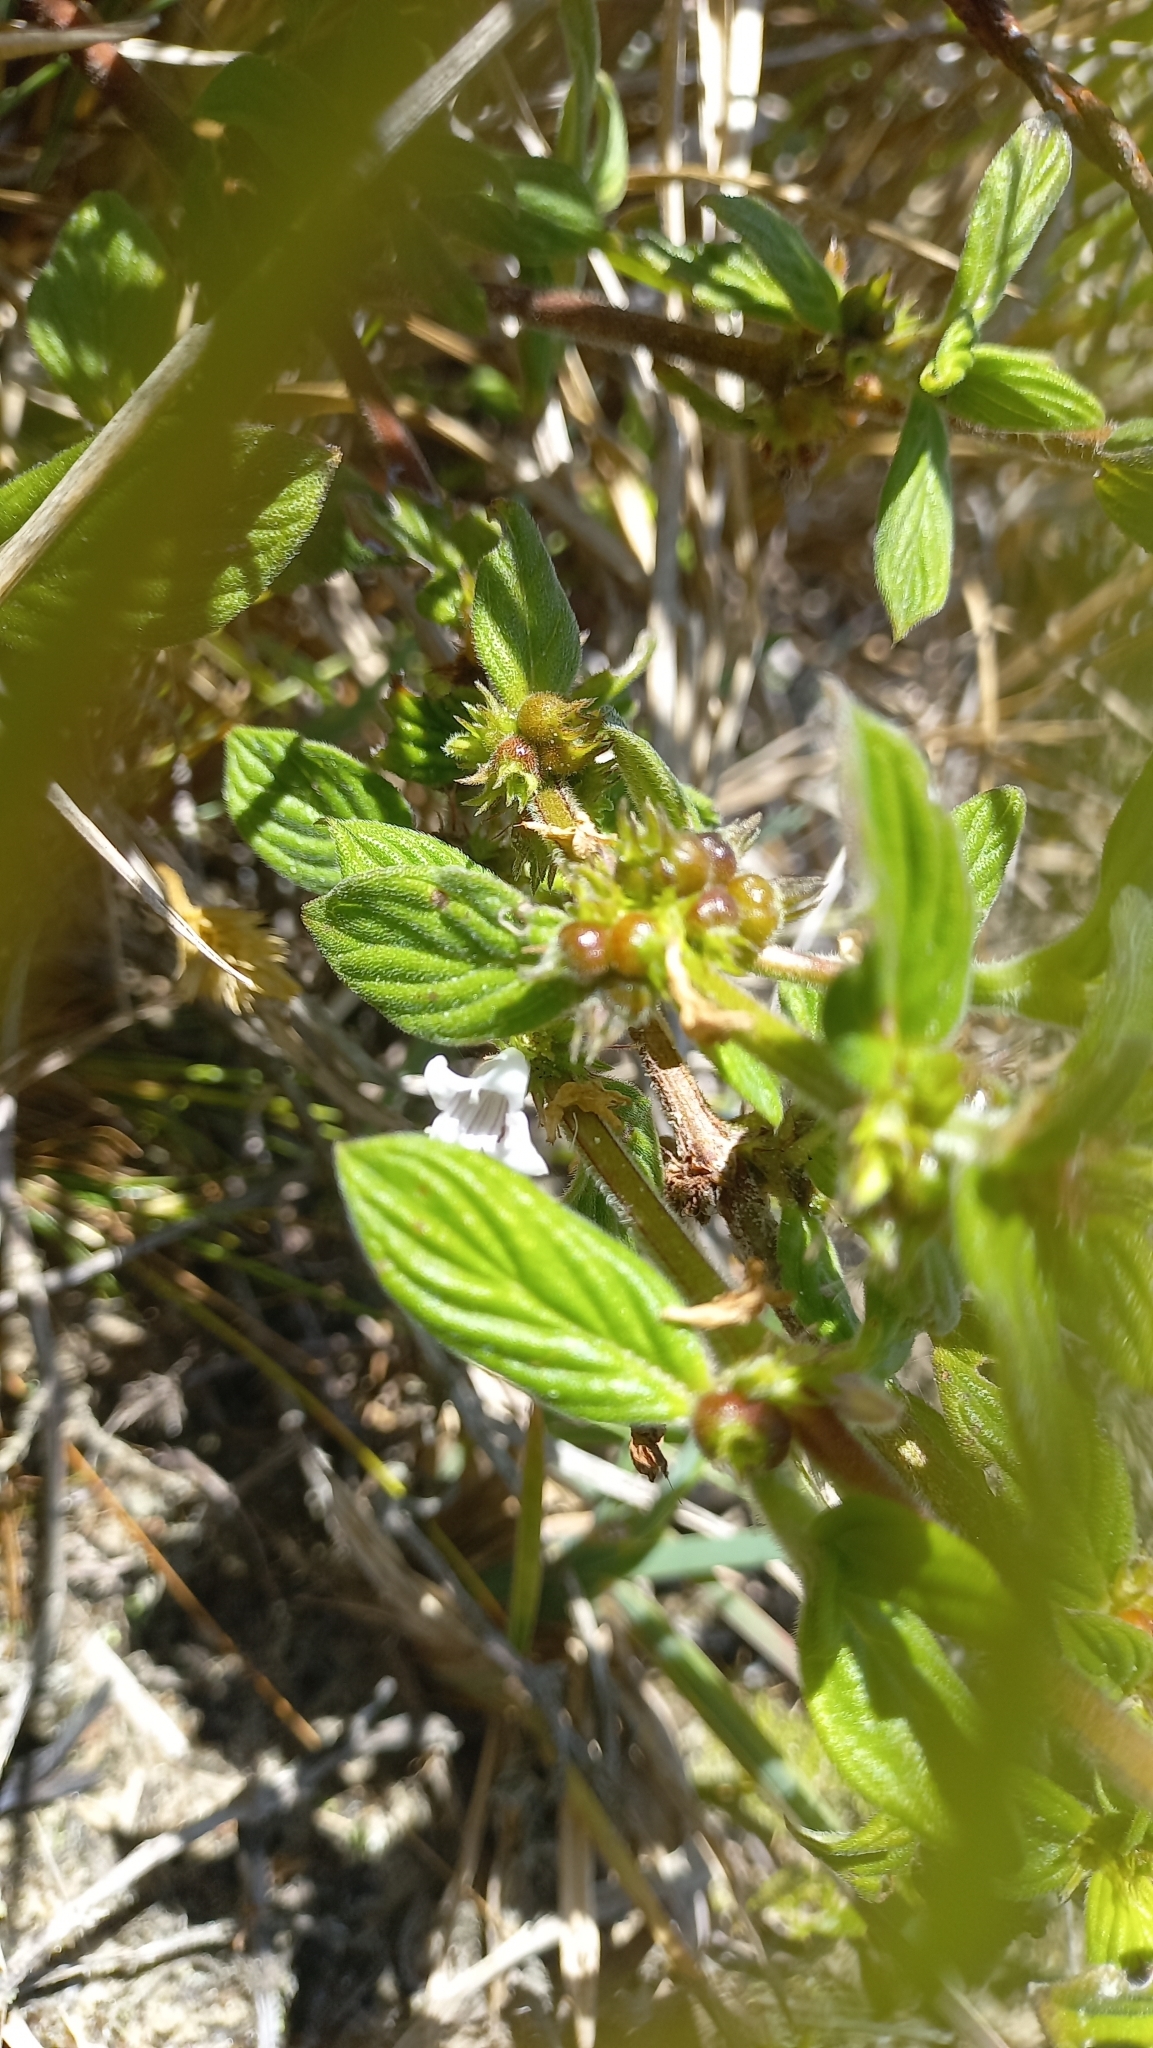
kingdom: Plantae
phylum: Tracheophyta
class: Magnoliopsida
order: Gentianales
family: Rubiaceae
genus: Hexasepalum
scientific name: Hexasepalum radulum
